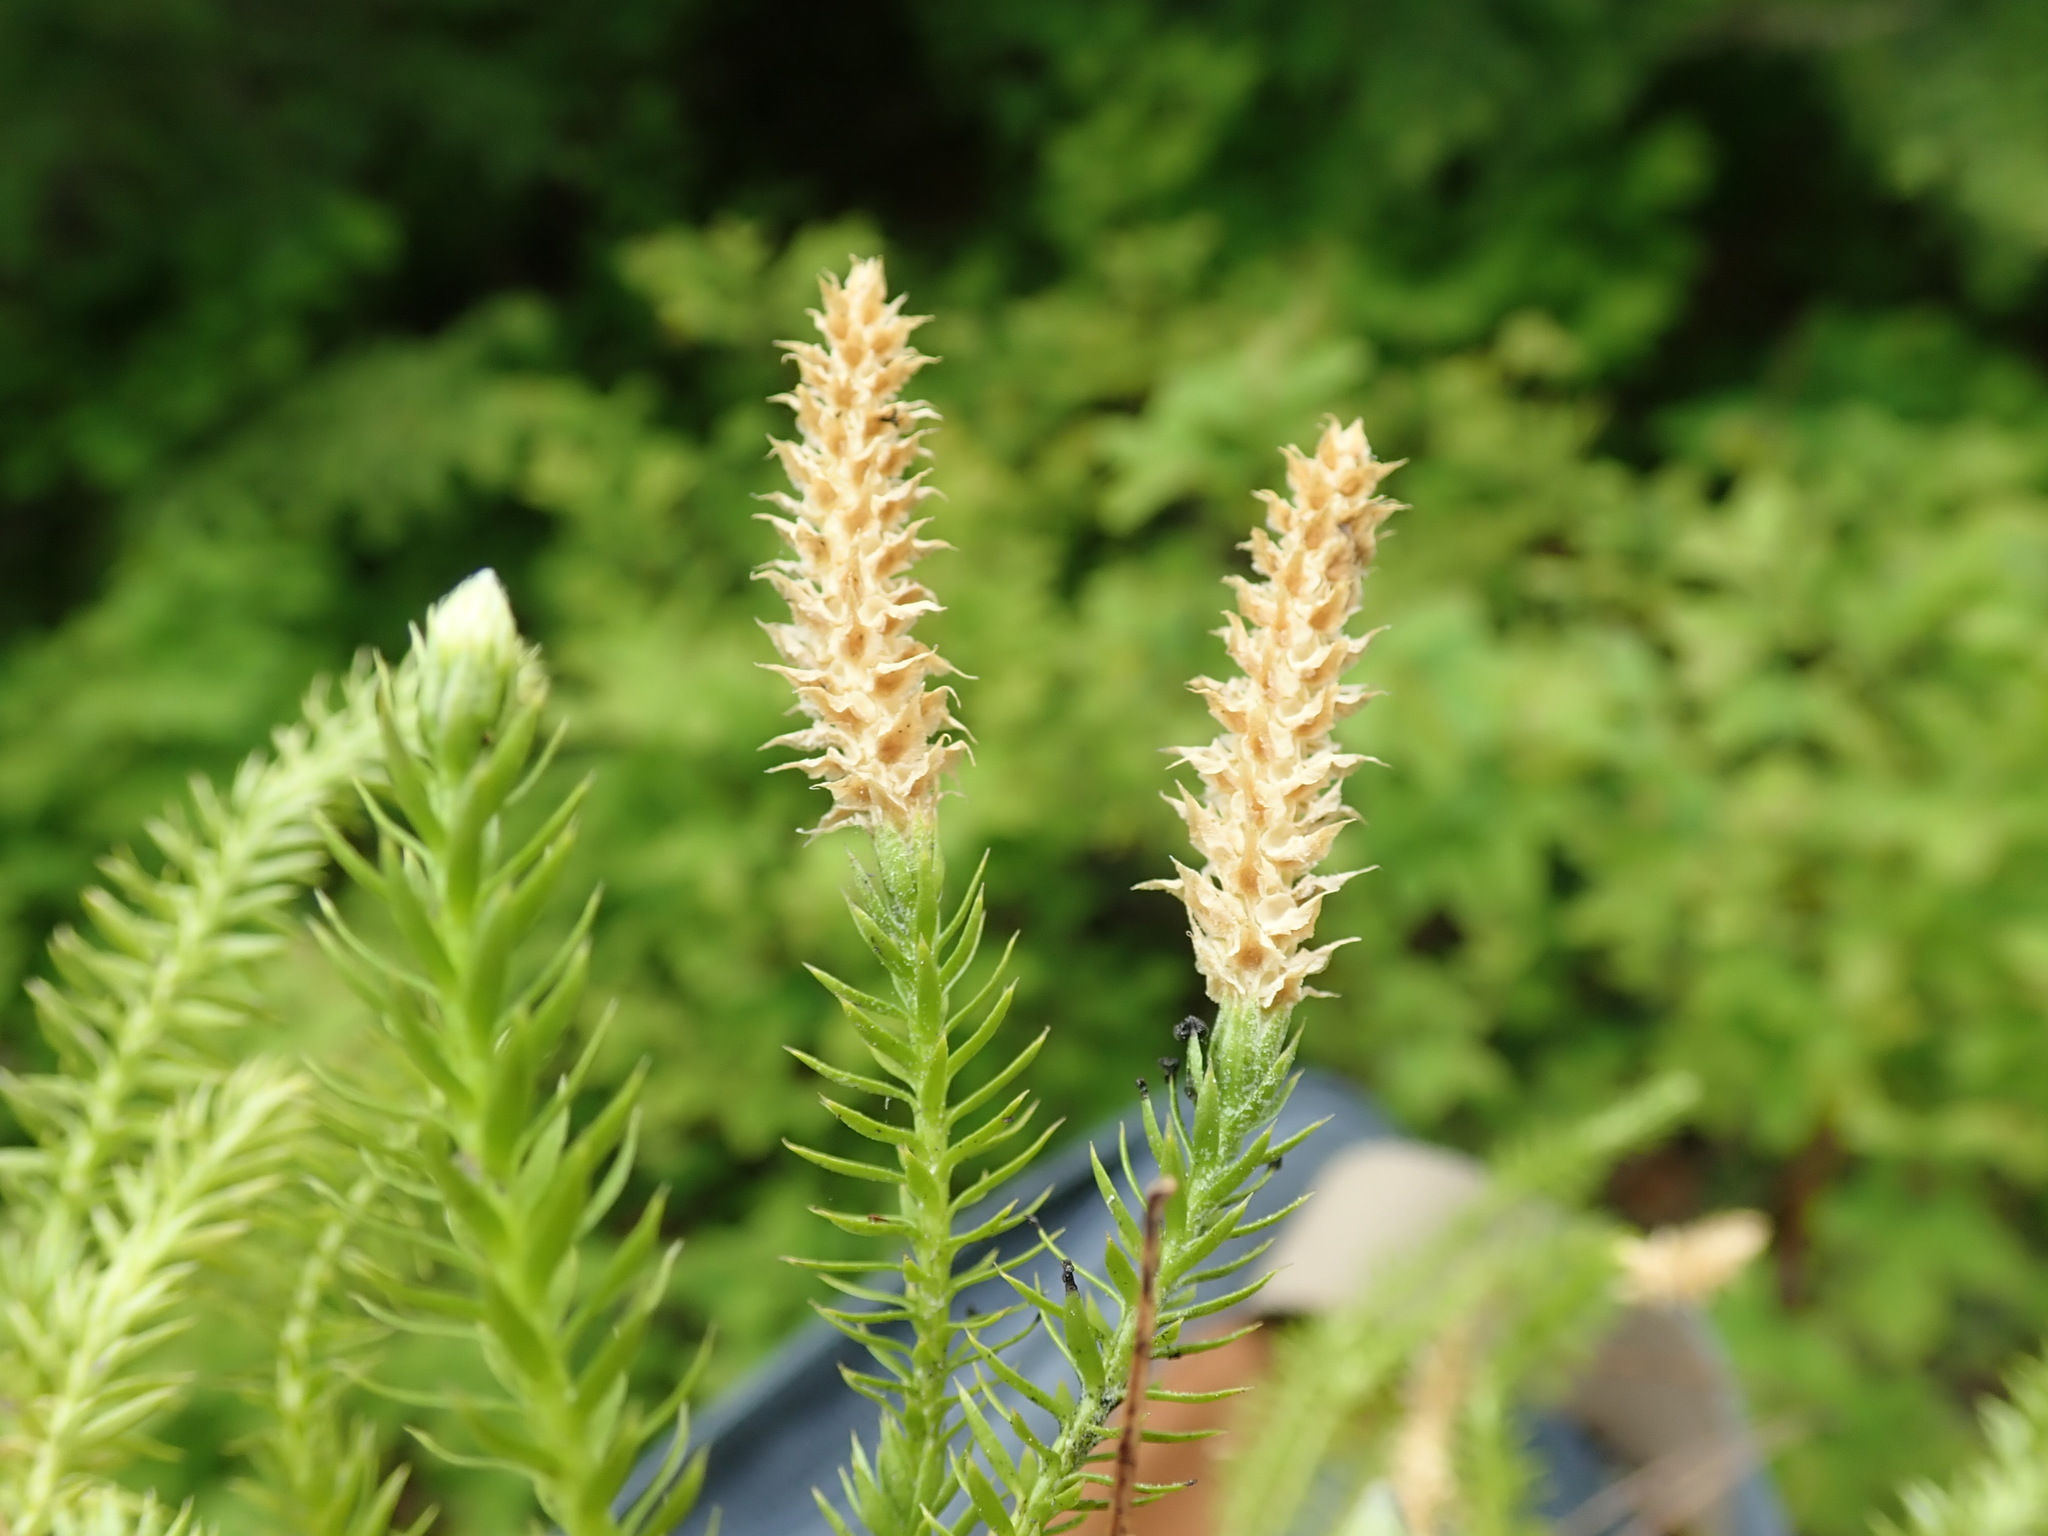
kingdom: Plantae
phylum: Tracheophyta
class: Lycopodiopsida
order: Lycopodiales
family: Lycopodiaceae
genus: Spinulum
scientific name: Spinulum annotinum
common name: Interrupted club-moss
